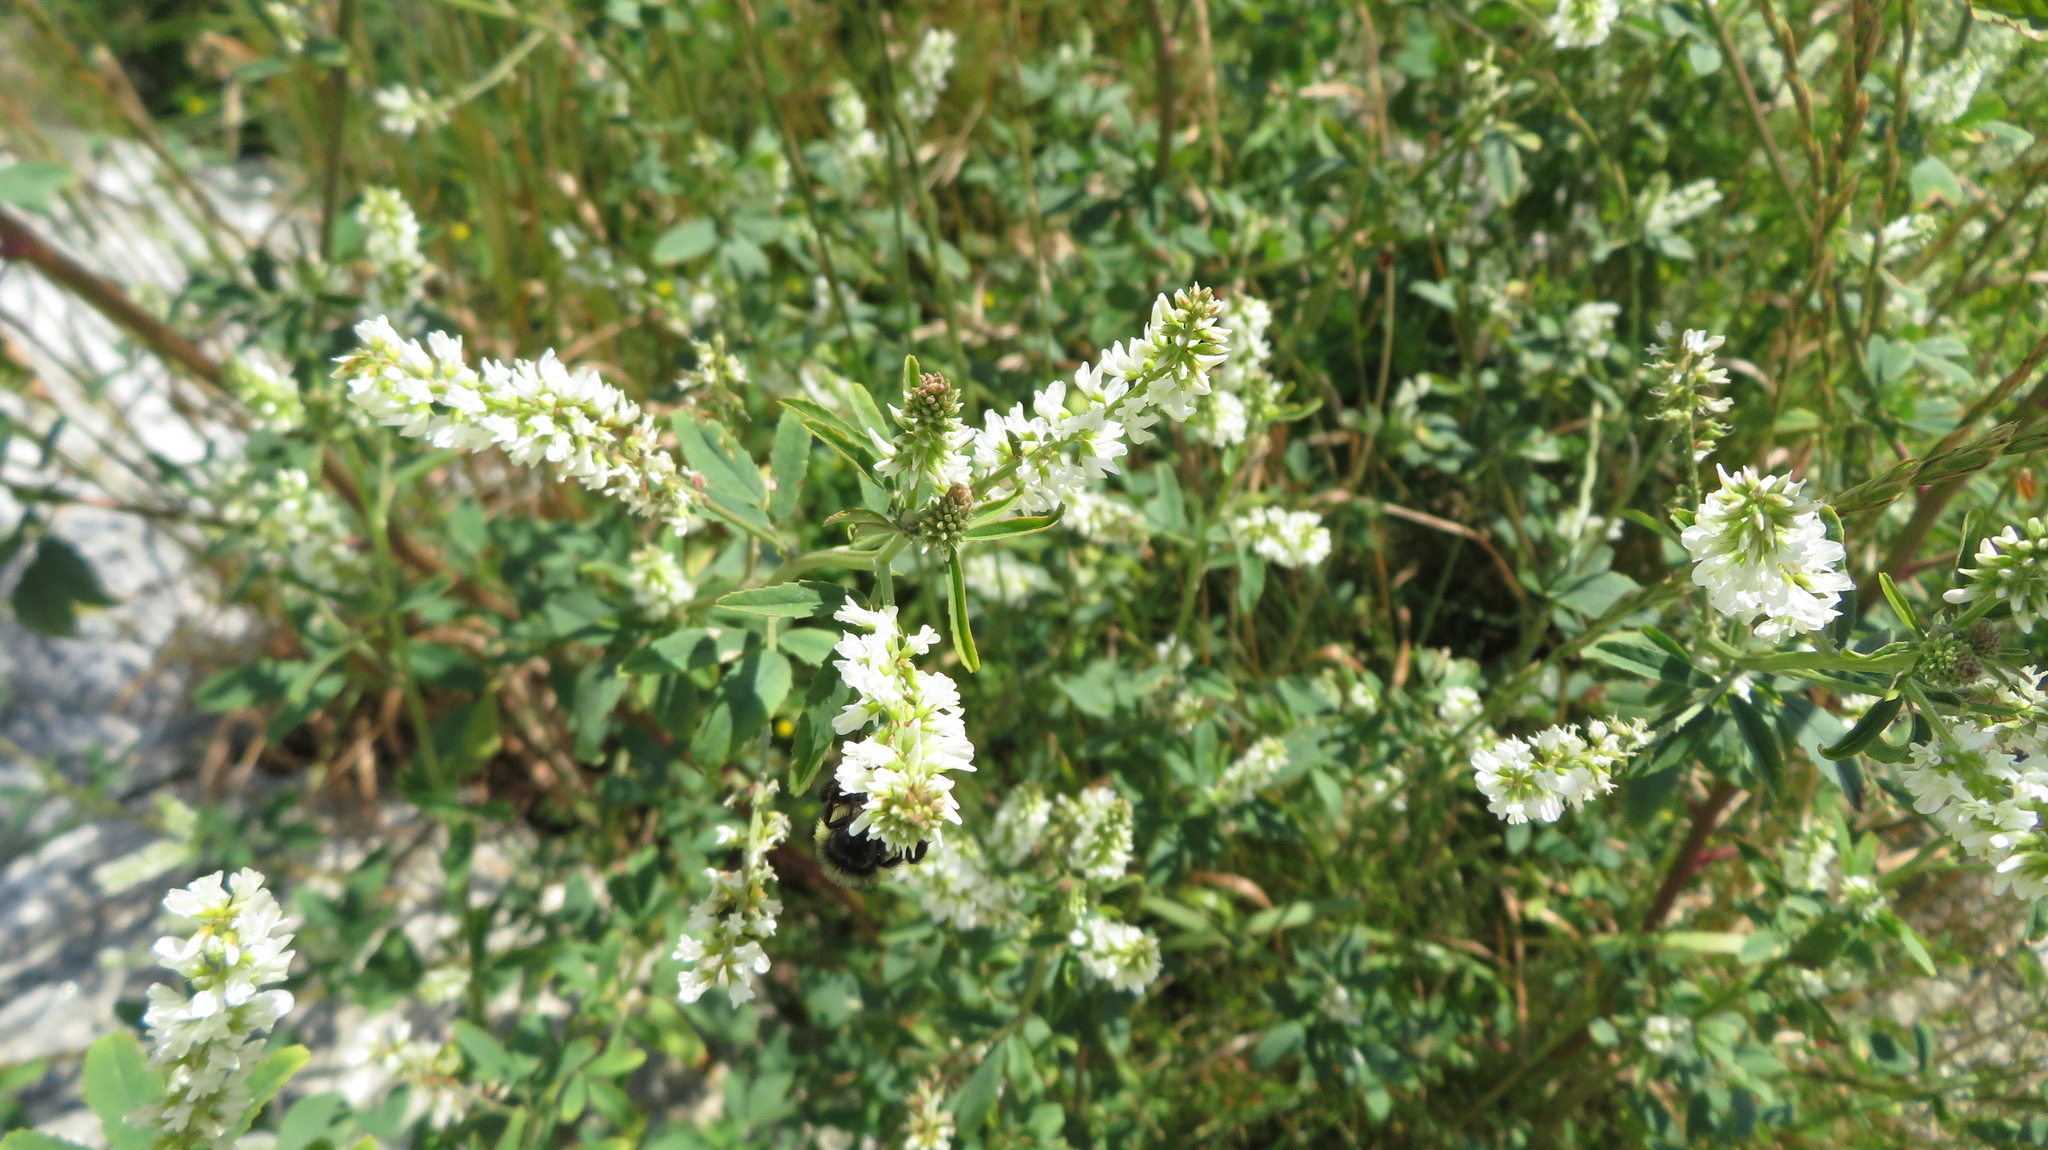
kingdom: Plantae
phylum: Tracheophyta
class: Magnoliopsida
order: Fabales
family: Fabaceae
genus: Melilotus
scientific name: Melilotus albus
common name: White melilot
